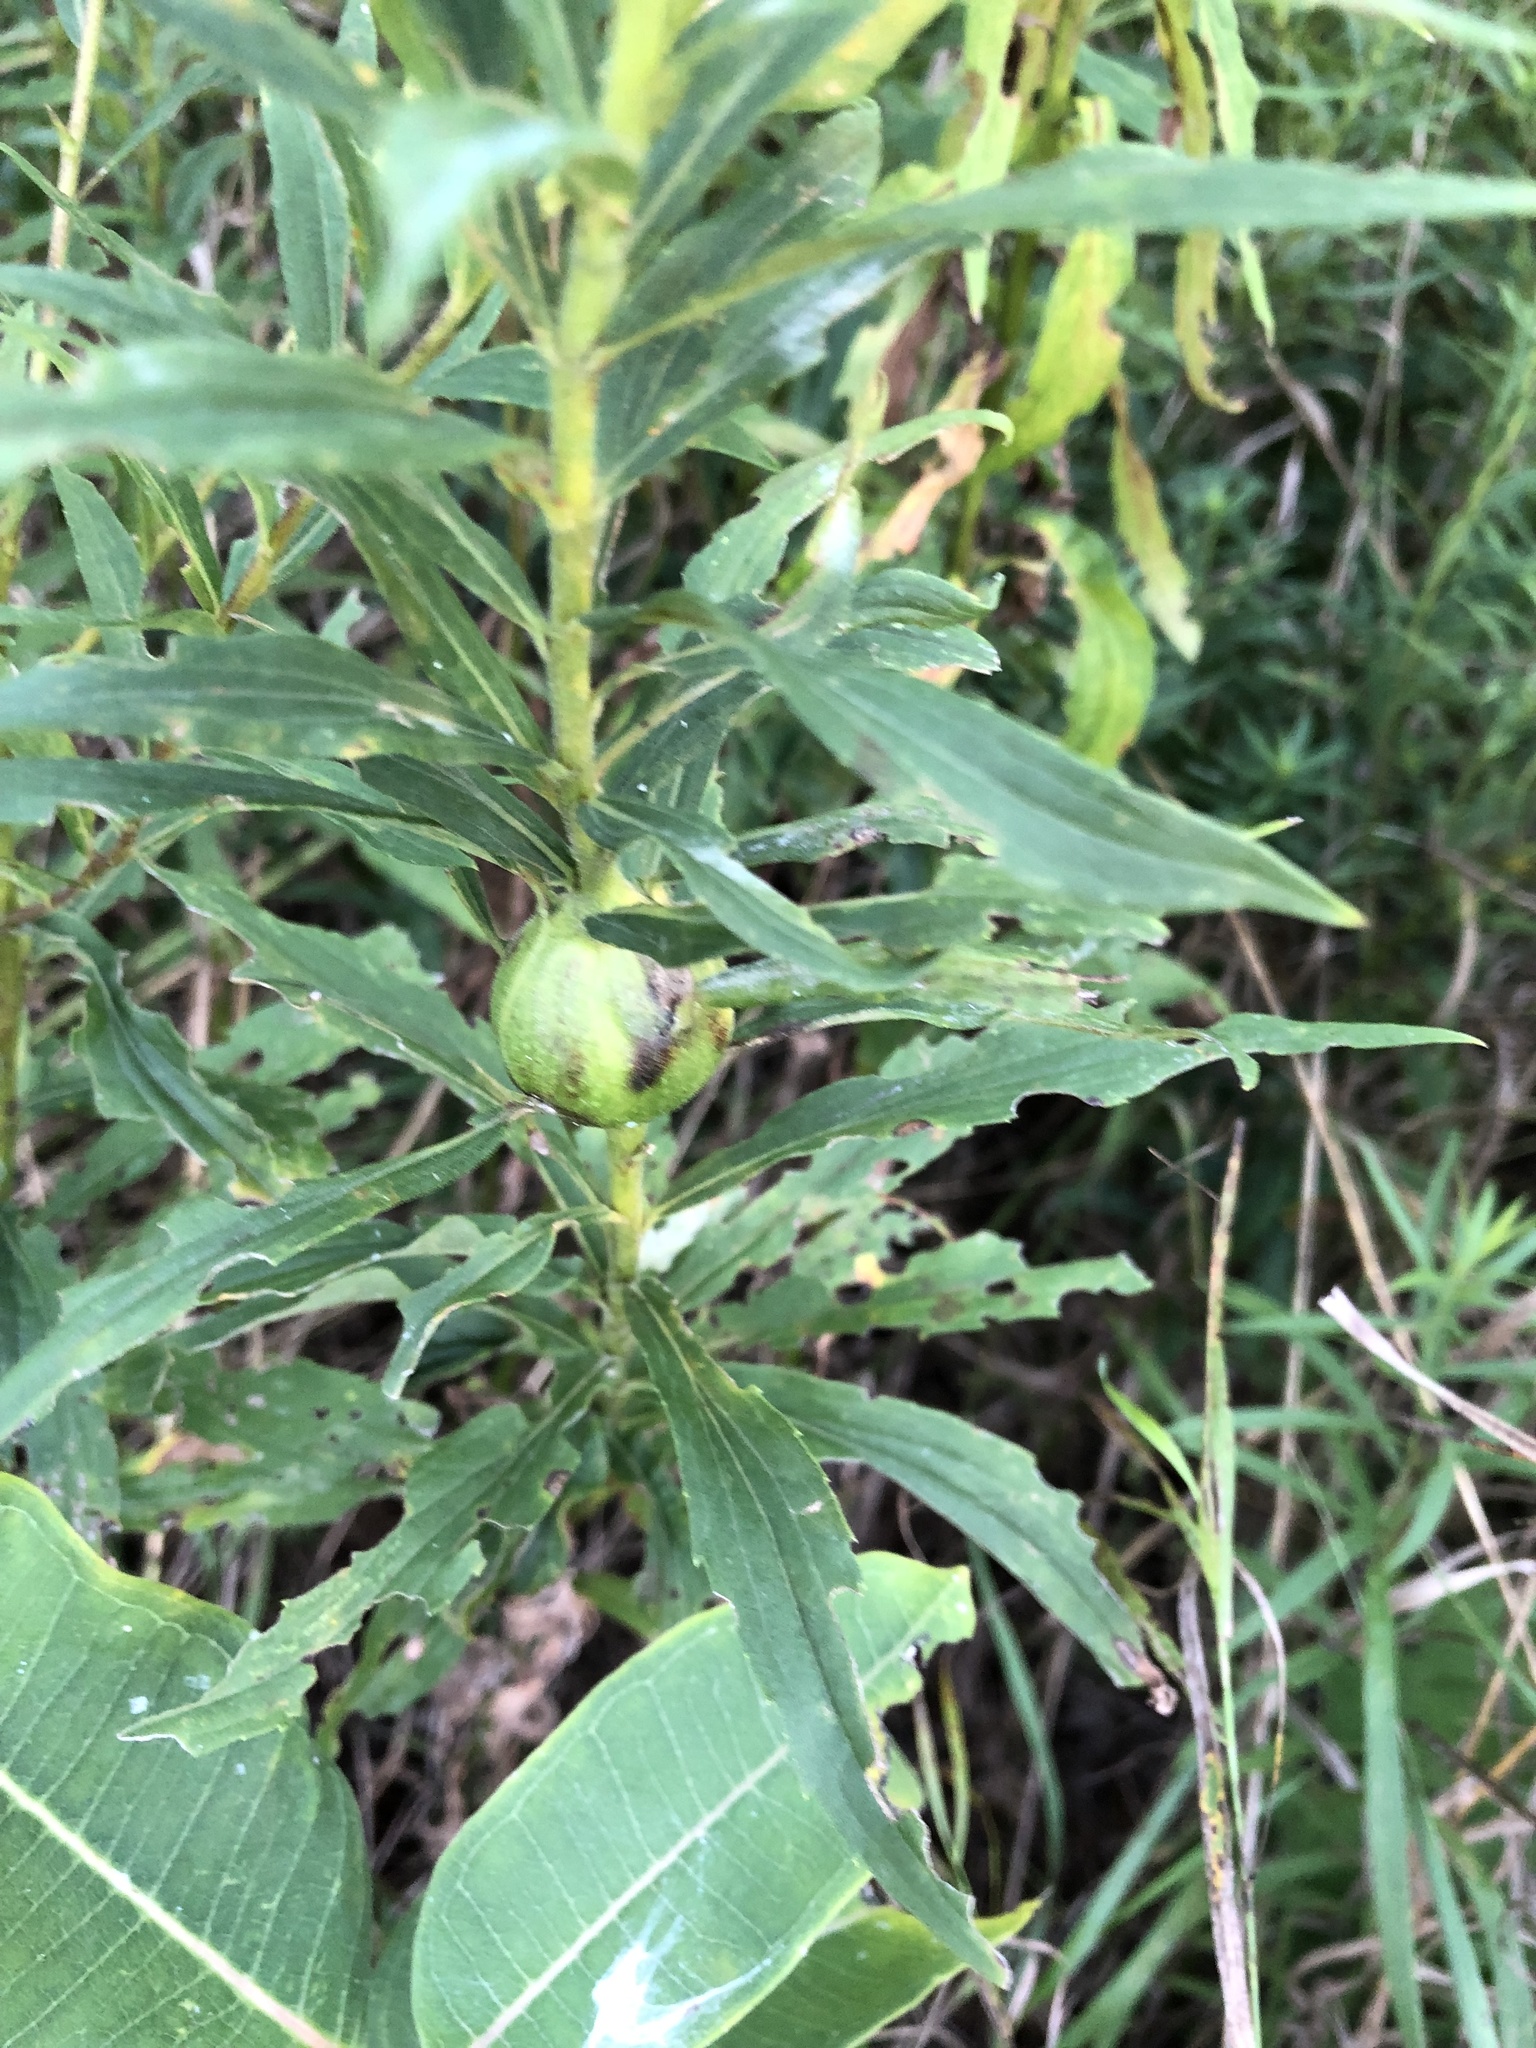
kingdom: Animalia
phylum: Arthropoda
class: Insecta
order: Diptera
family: Tephritidae
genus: Eurosta
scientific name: Eurosta solidaginis
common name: Goldenrod gall fly
